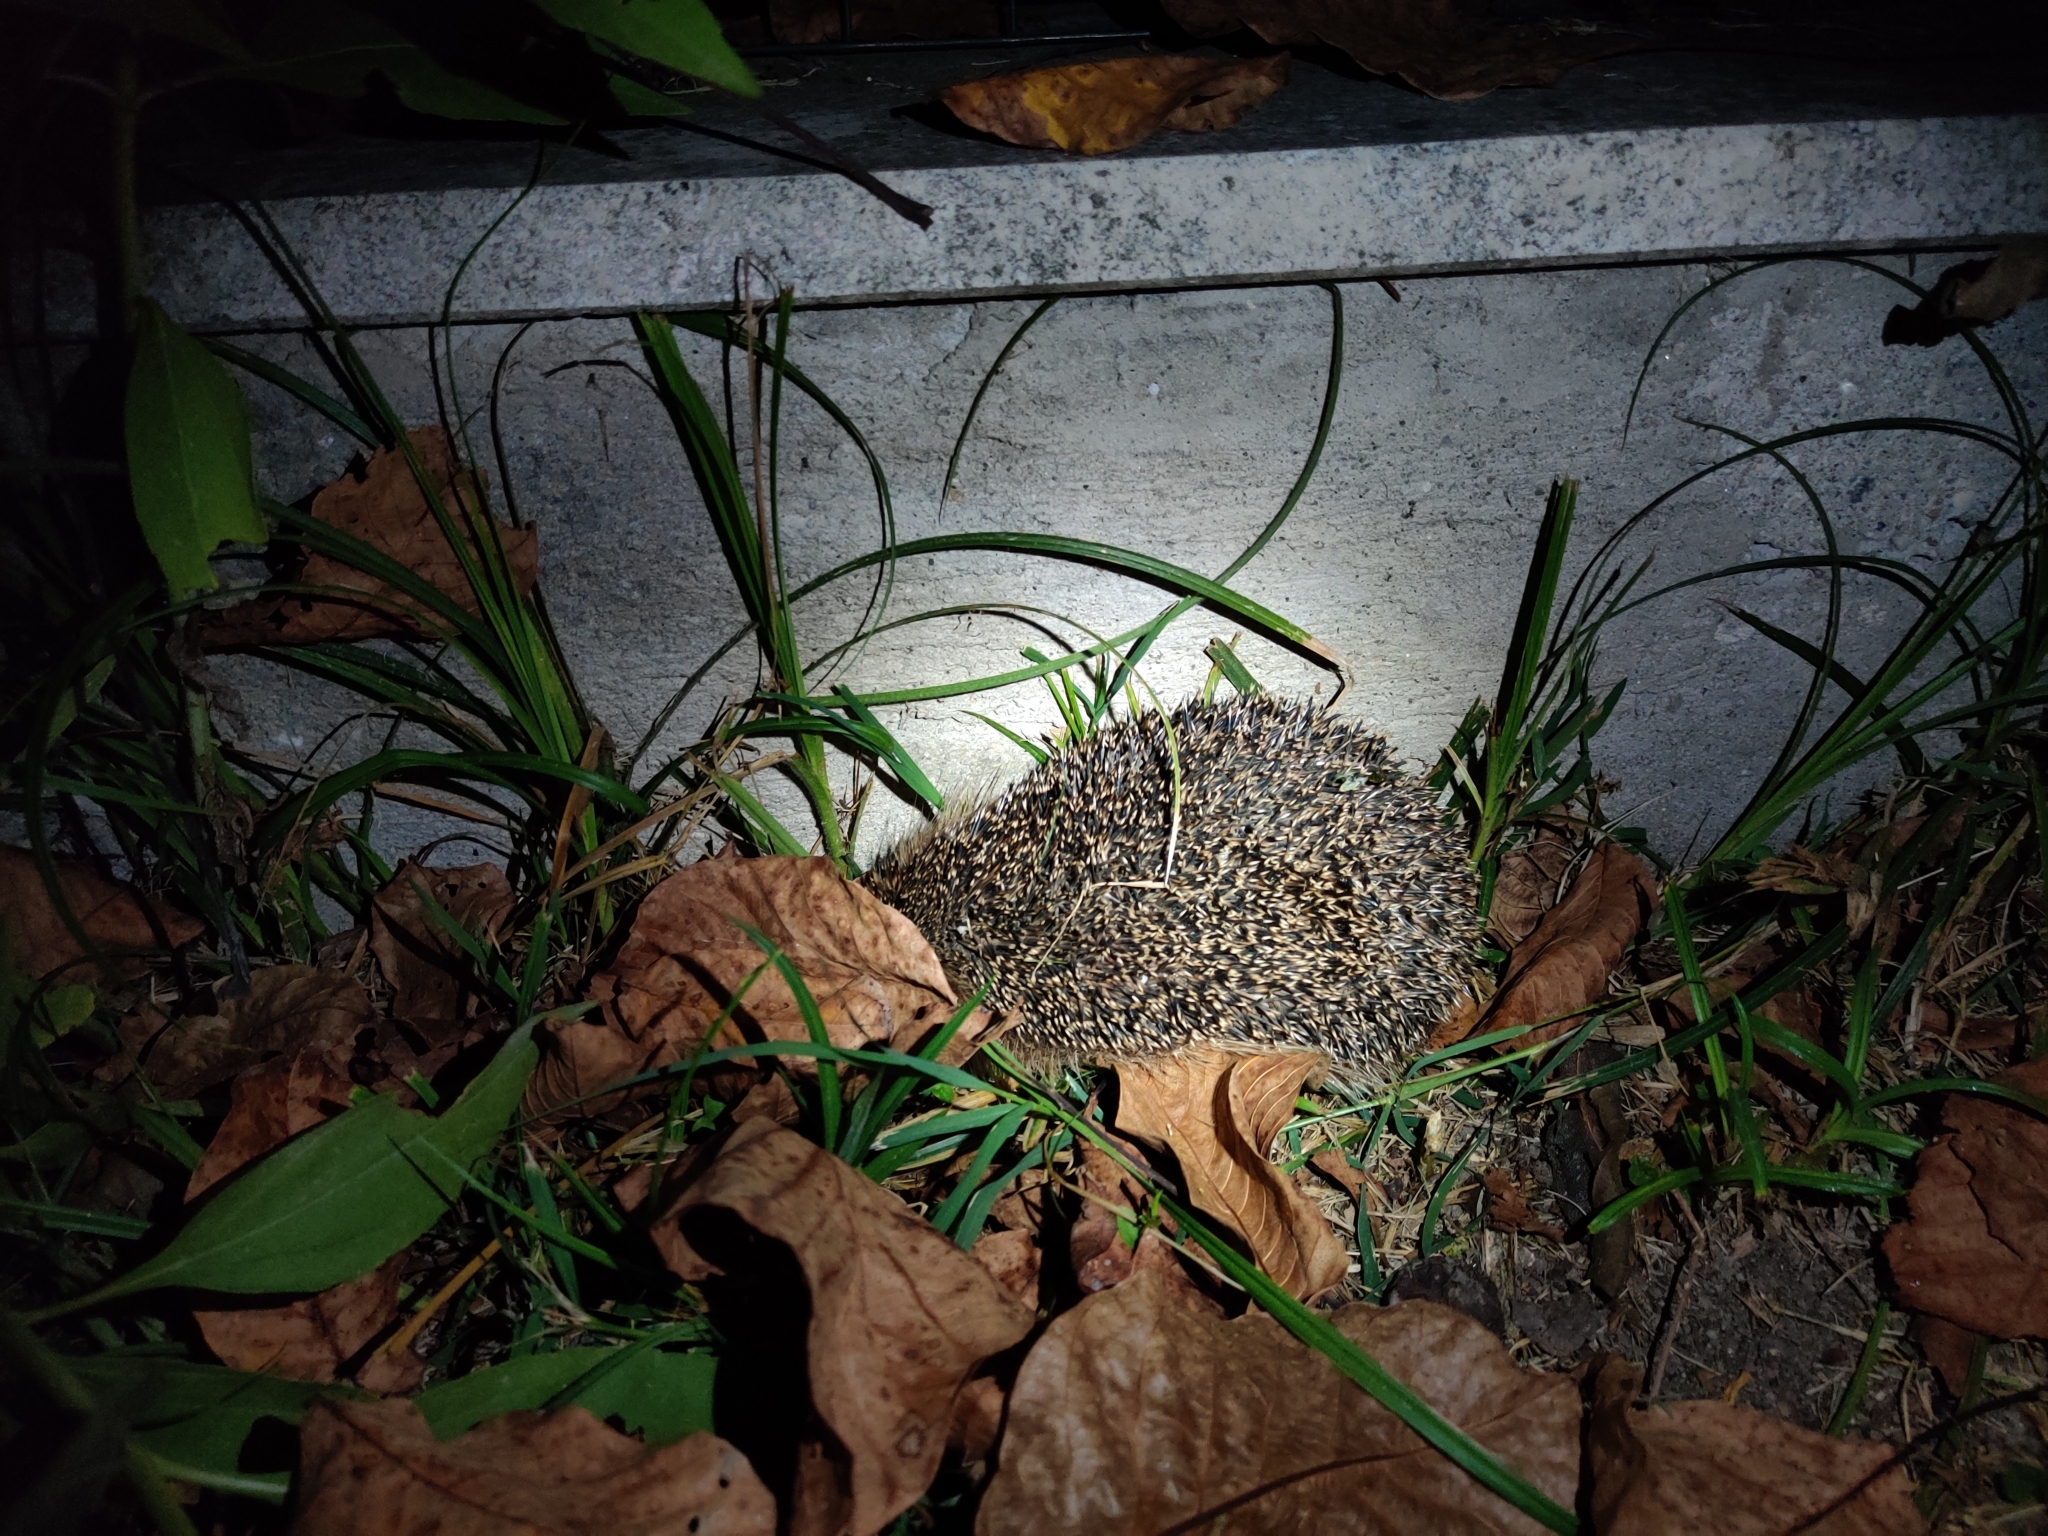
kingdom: Animalia
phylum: Chordata
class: Mammalia
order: Erinaceomorpha
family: Erinaceidae
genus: Erinaceus
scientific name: Erinaceus europaeus
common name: West european hedgehog
